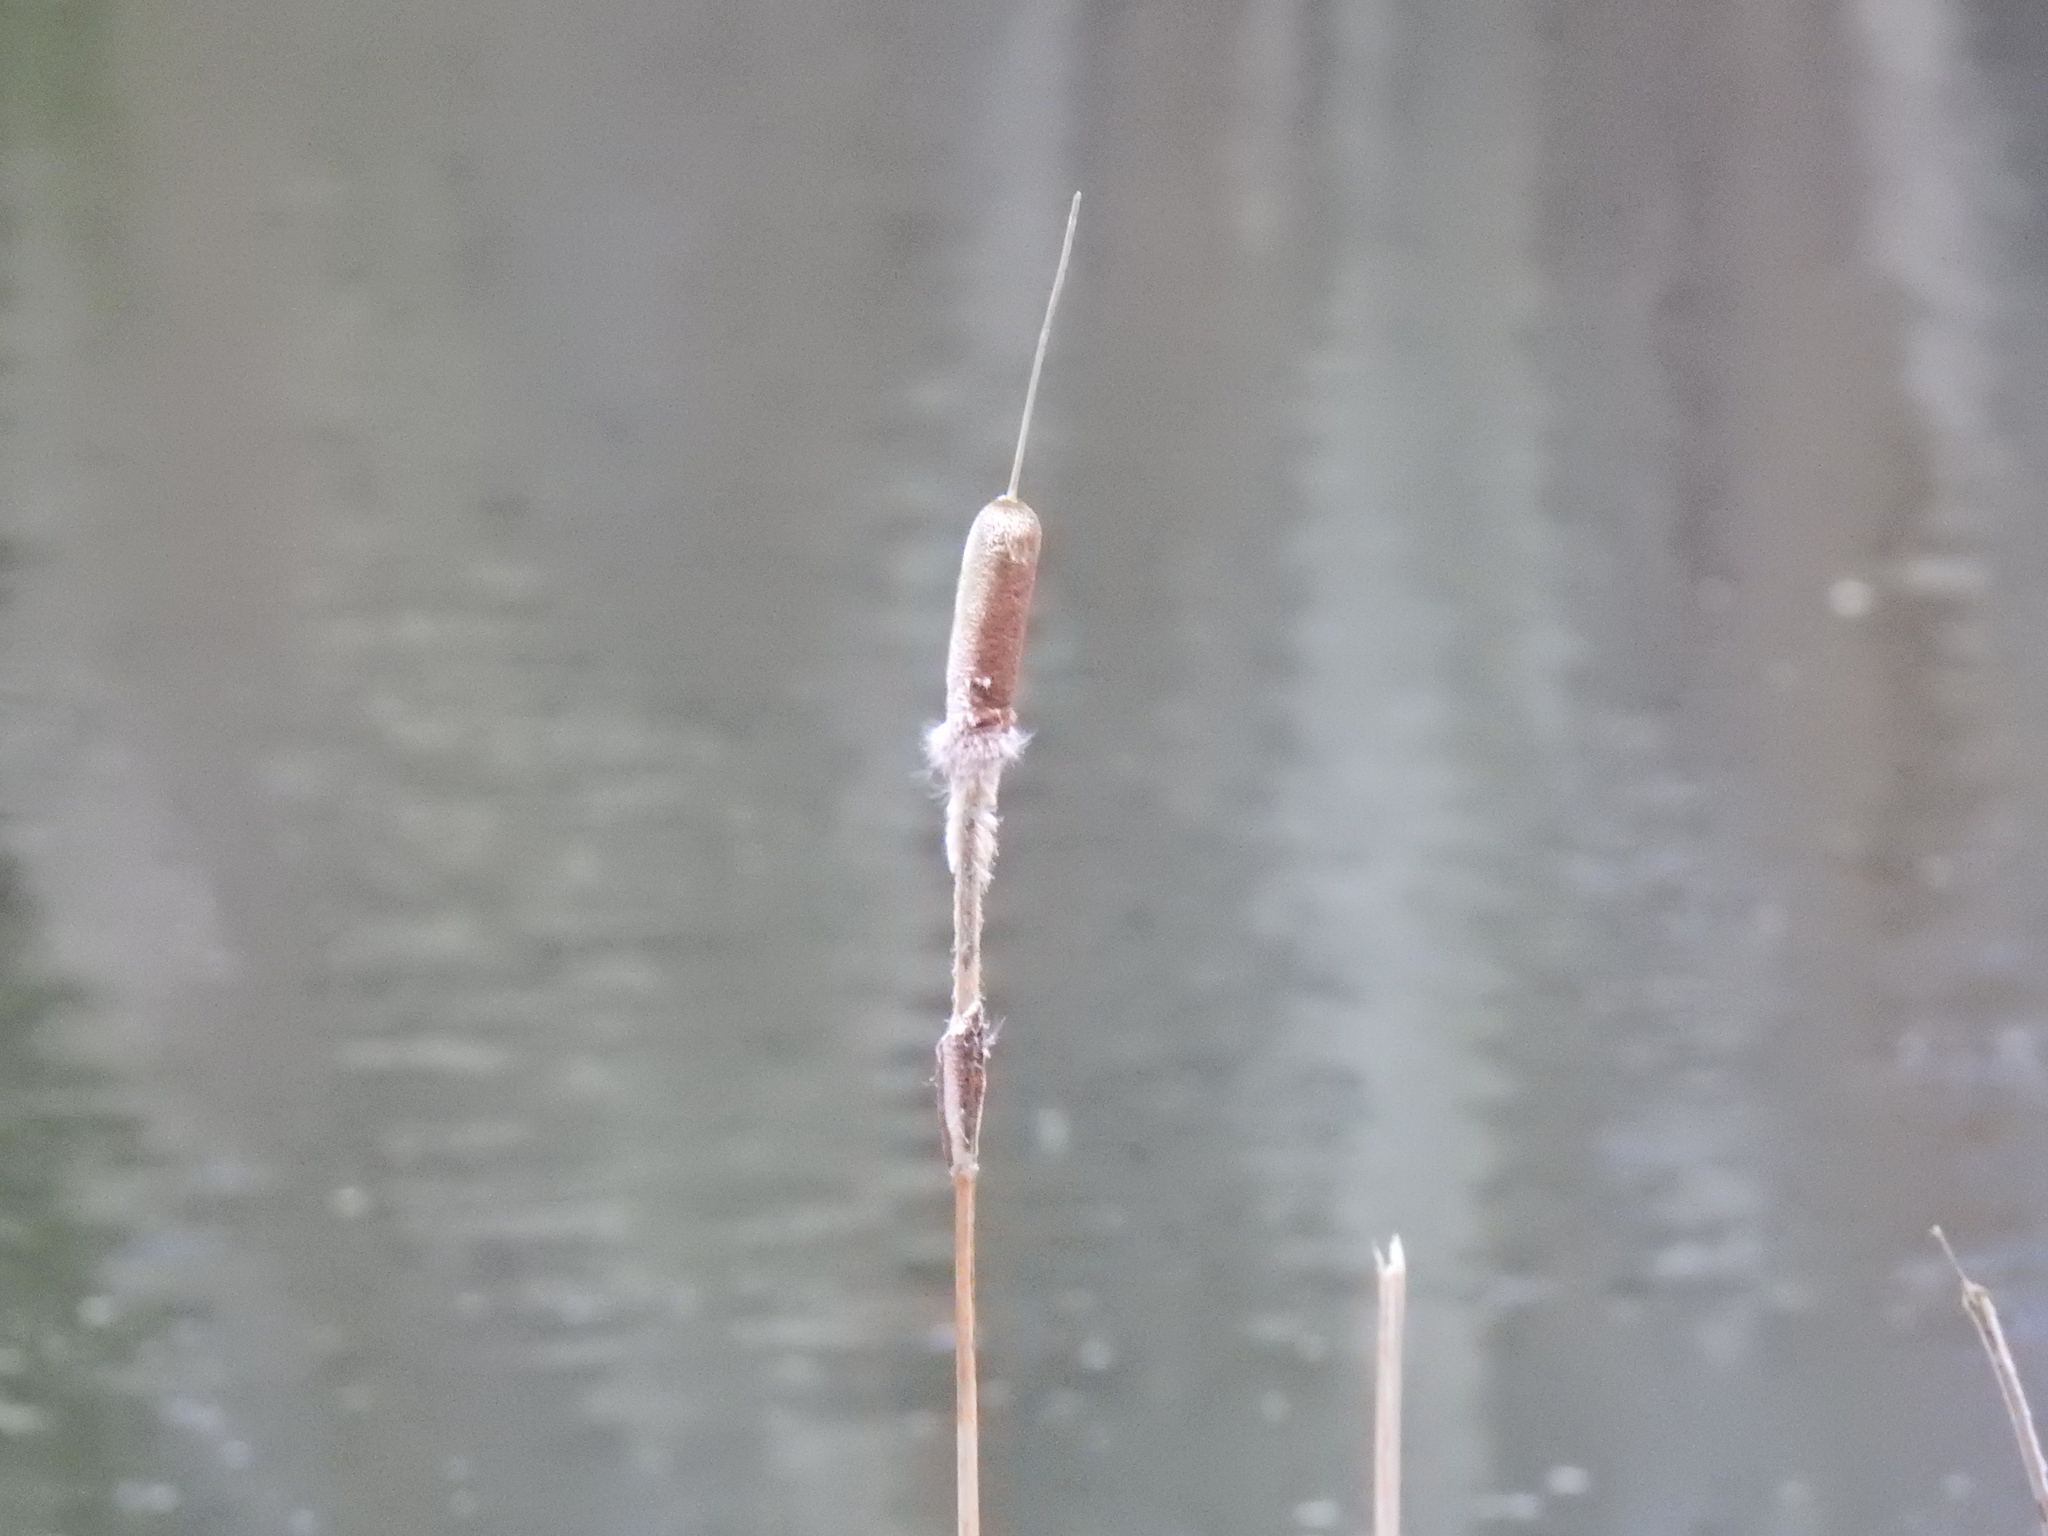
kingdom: Plantae
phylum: Tracheophyta
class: Liliopsida
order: Poales
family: Typhaceae
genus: Typha
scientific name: Typha latifolia
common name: Broadleaf cattail
